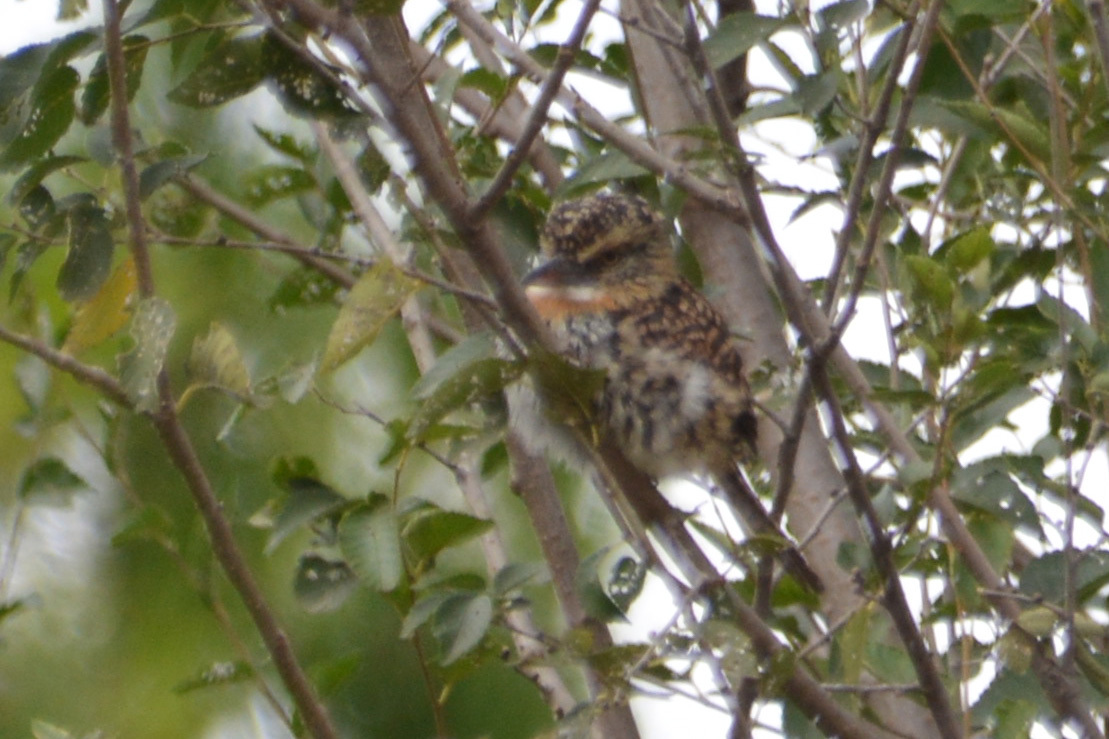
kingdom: Animalia
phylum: Chordata
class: Aves
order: Piciformes
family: Bucconidae
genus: Nystalus
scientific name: Nystalus maculatus
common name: Caatinga puffbird
